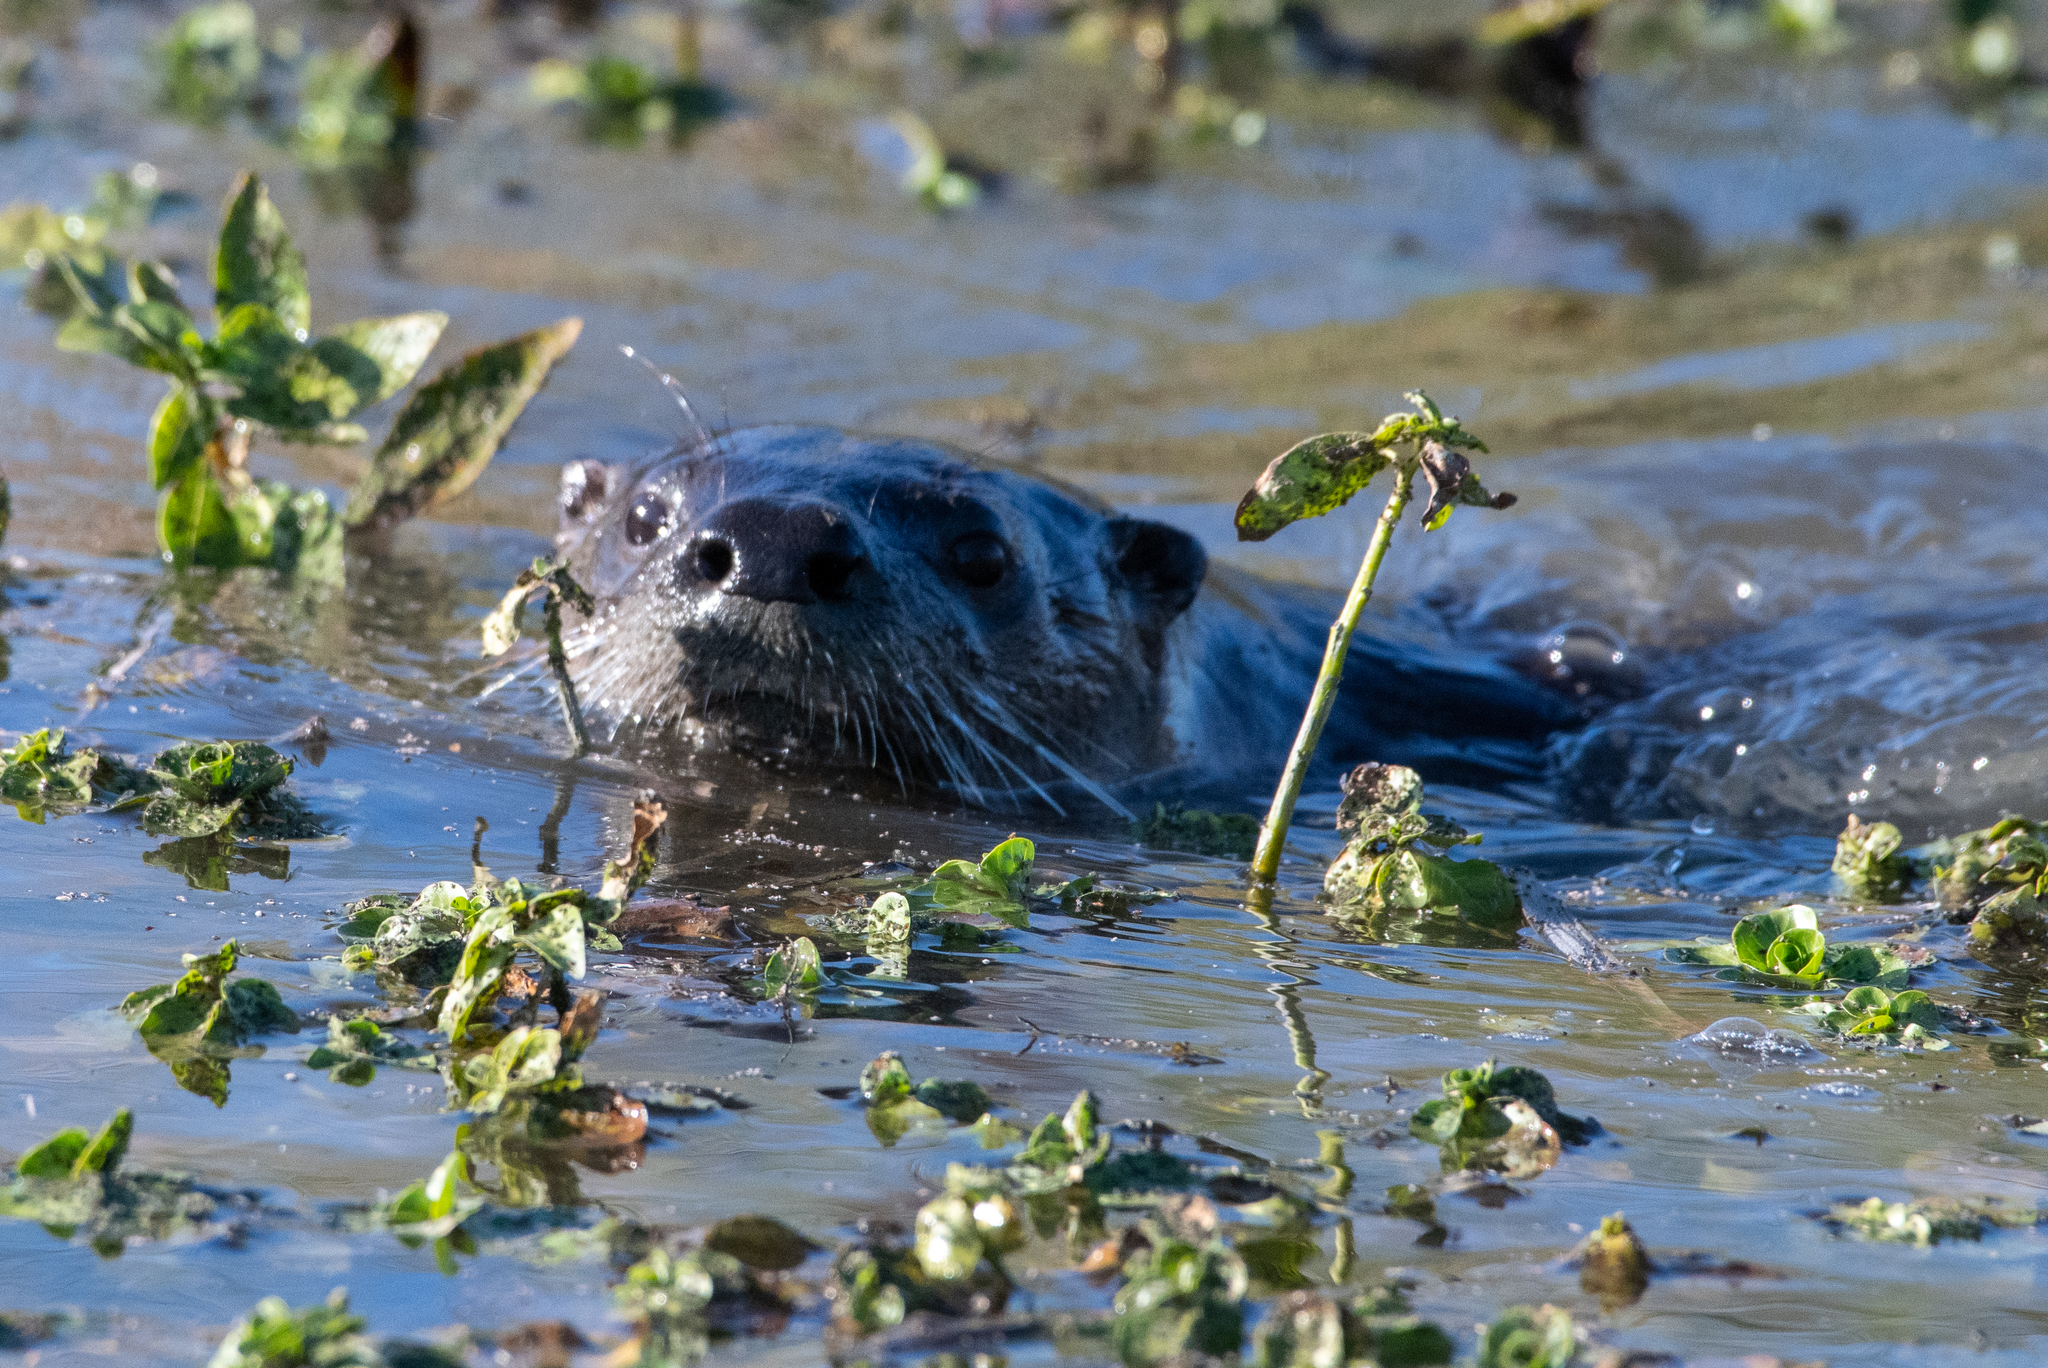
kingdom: Animalia
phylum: Chordata
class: Mammalia
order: Carnivora
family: Mustelidae
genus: Lontra
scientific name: Lontra canadensis
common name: North american river otter
